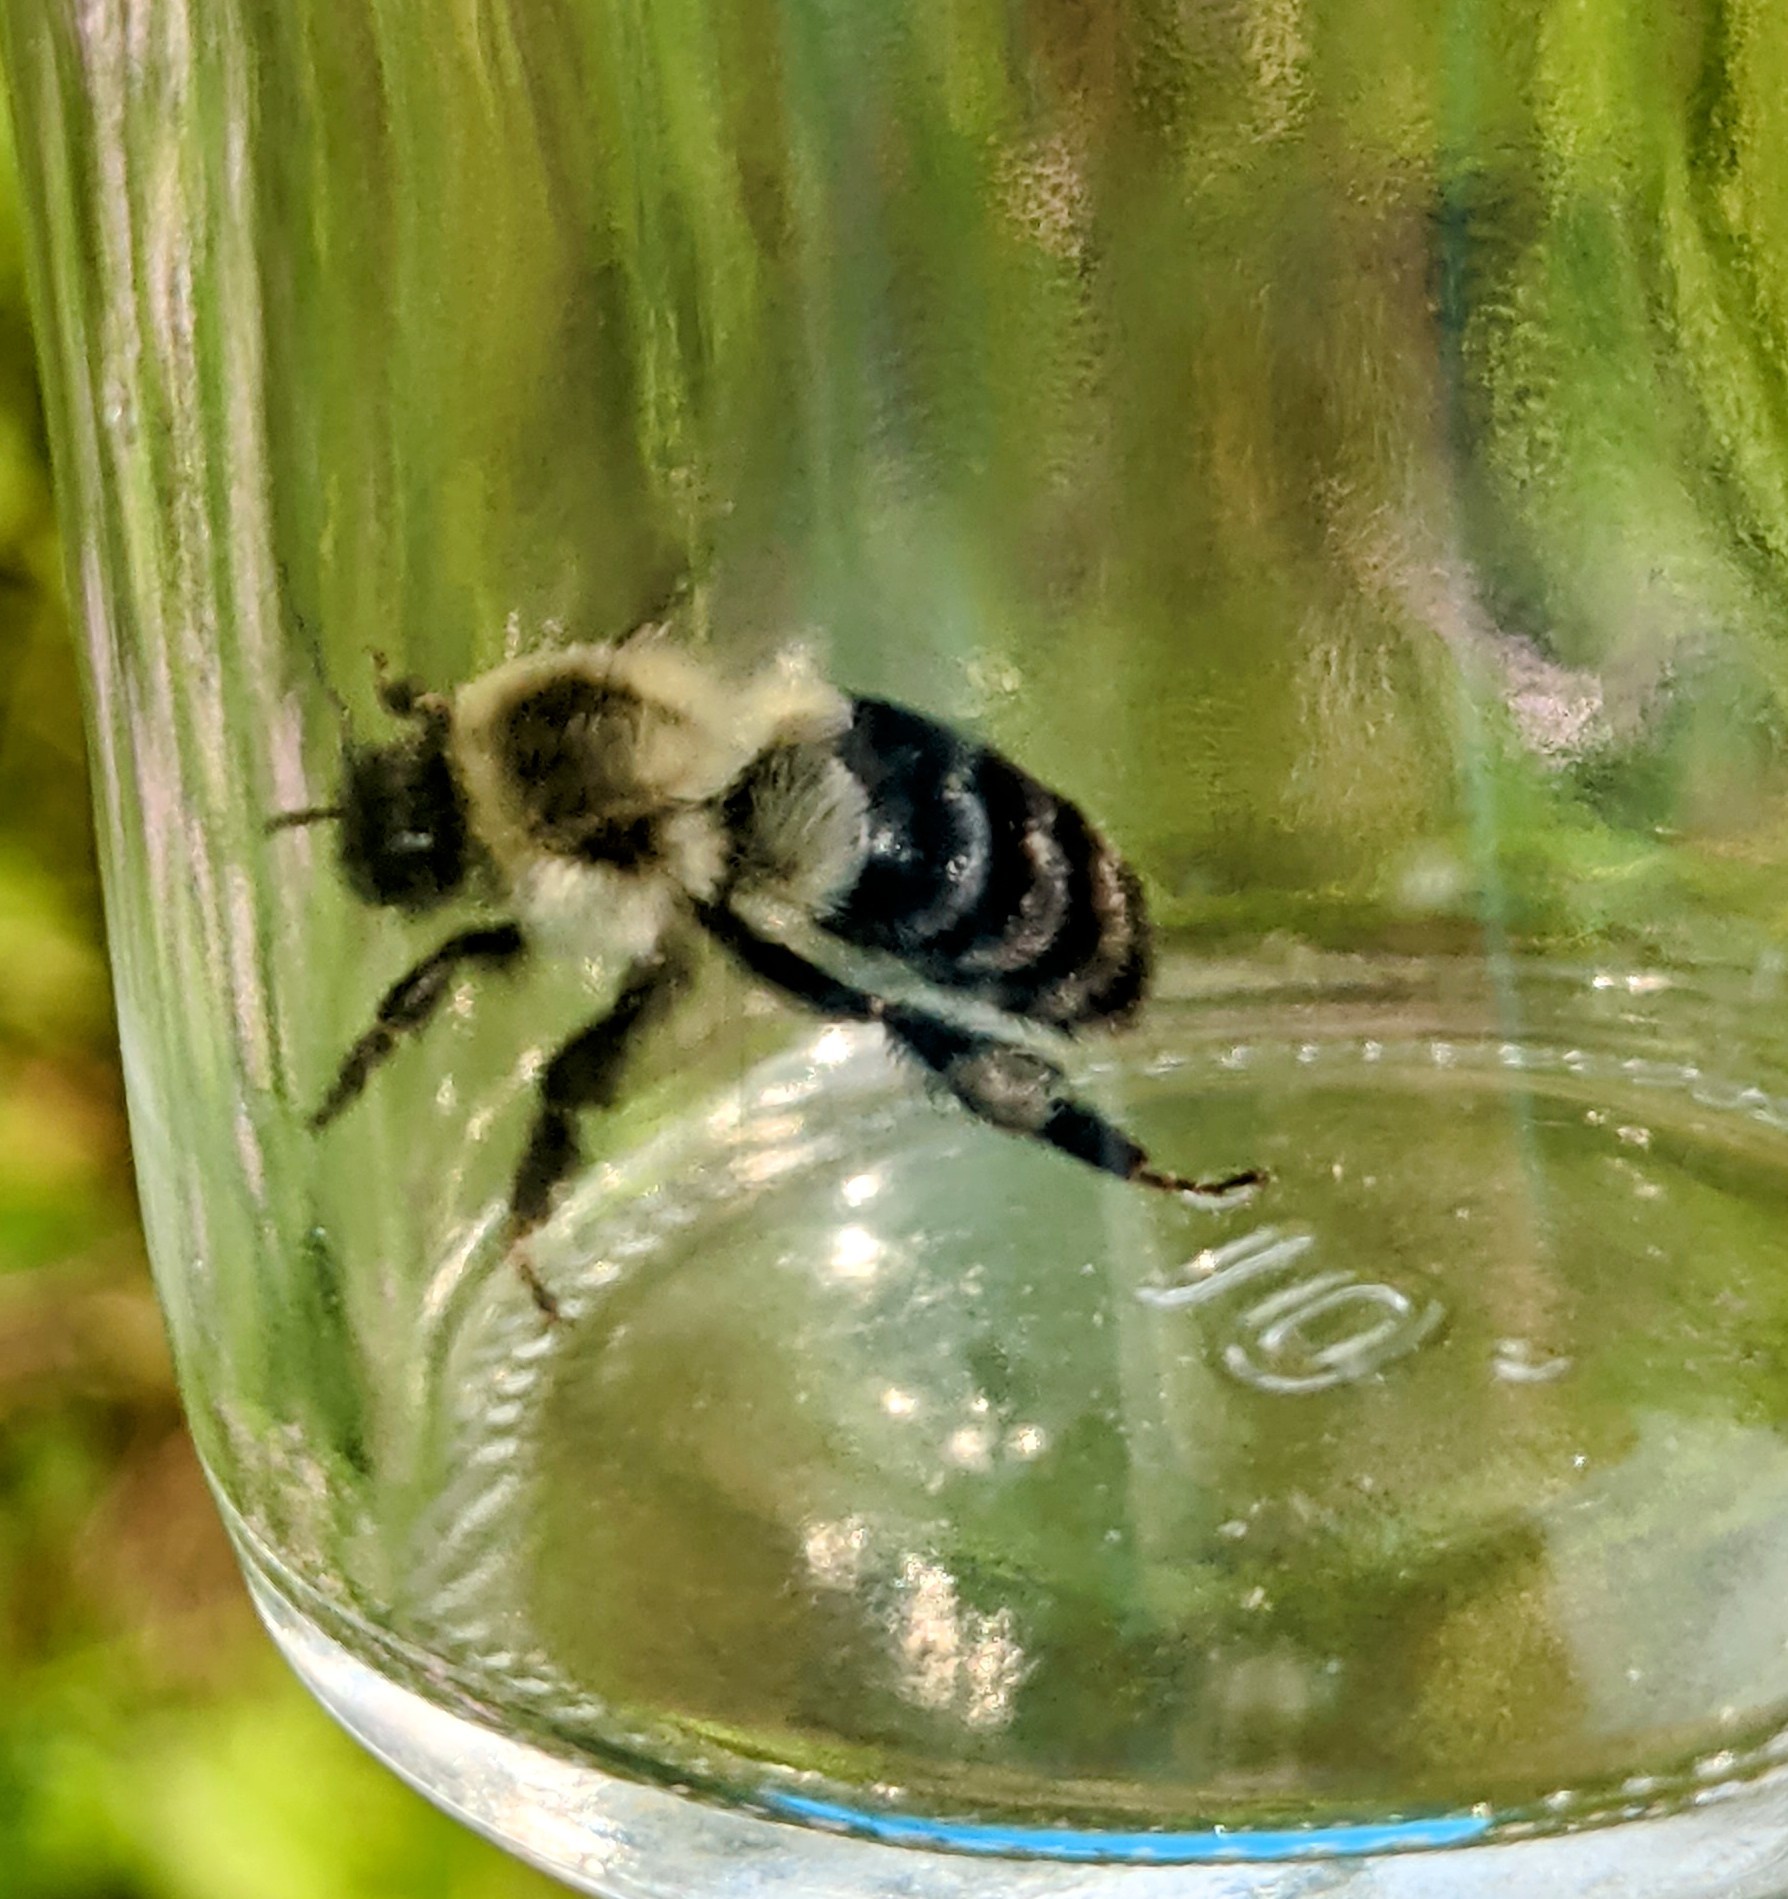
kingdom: Animalia
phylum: Arthropoda
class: Insecta
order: Hymenoptera
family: Apidae
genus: Bombus
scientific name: Bombus impatiens
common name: Common eastern bumble bee
